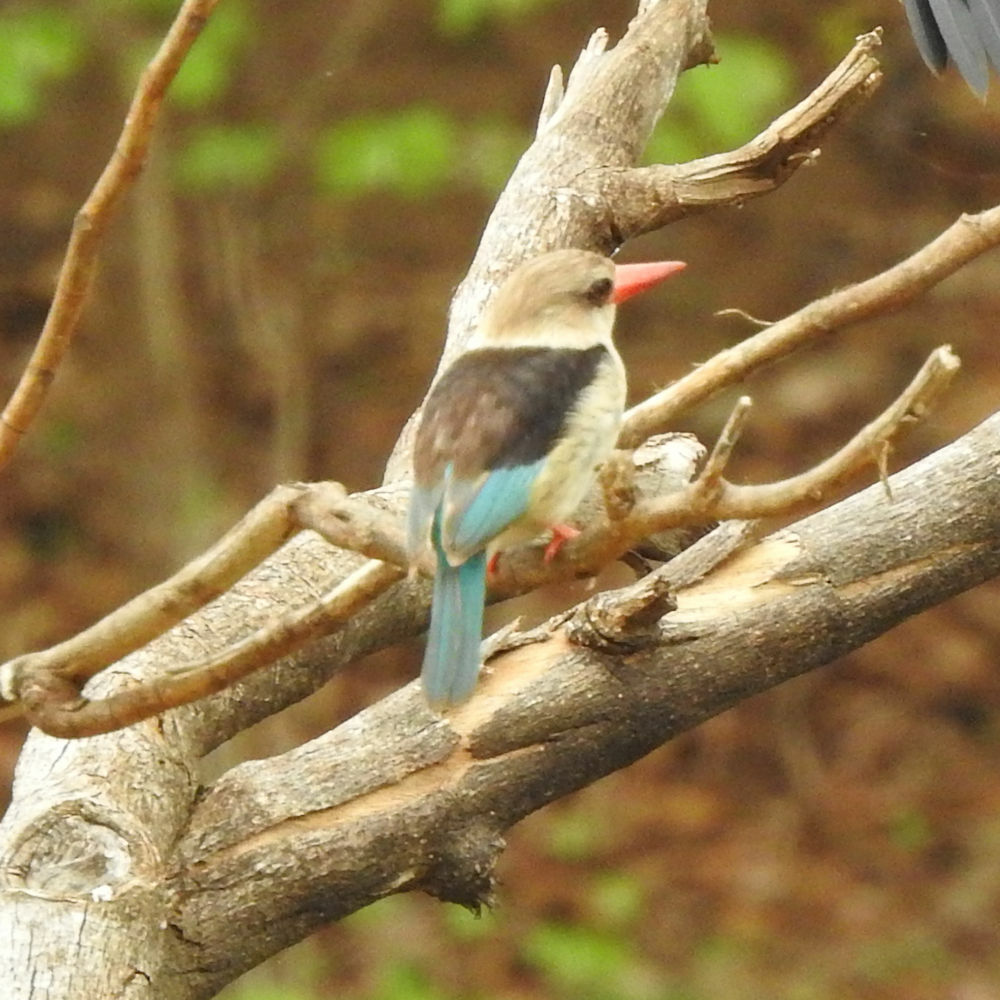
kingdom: Animalia
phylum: Chordata
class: Aves
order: Coraciiformes
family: Alcedinidae
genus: Halcyon
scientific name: Halcyon albiventris
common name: Brown-hooded kingfisher
